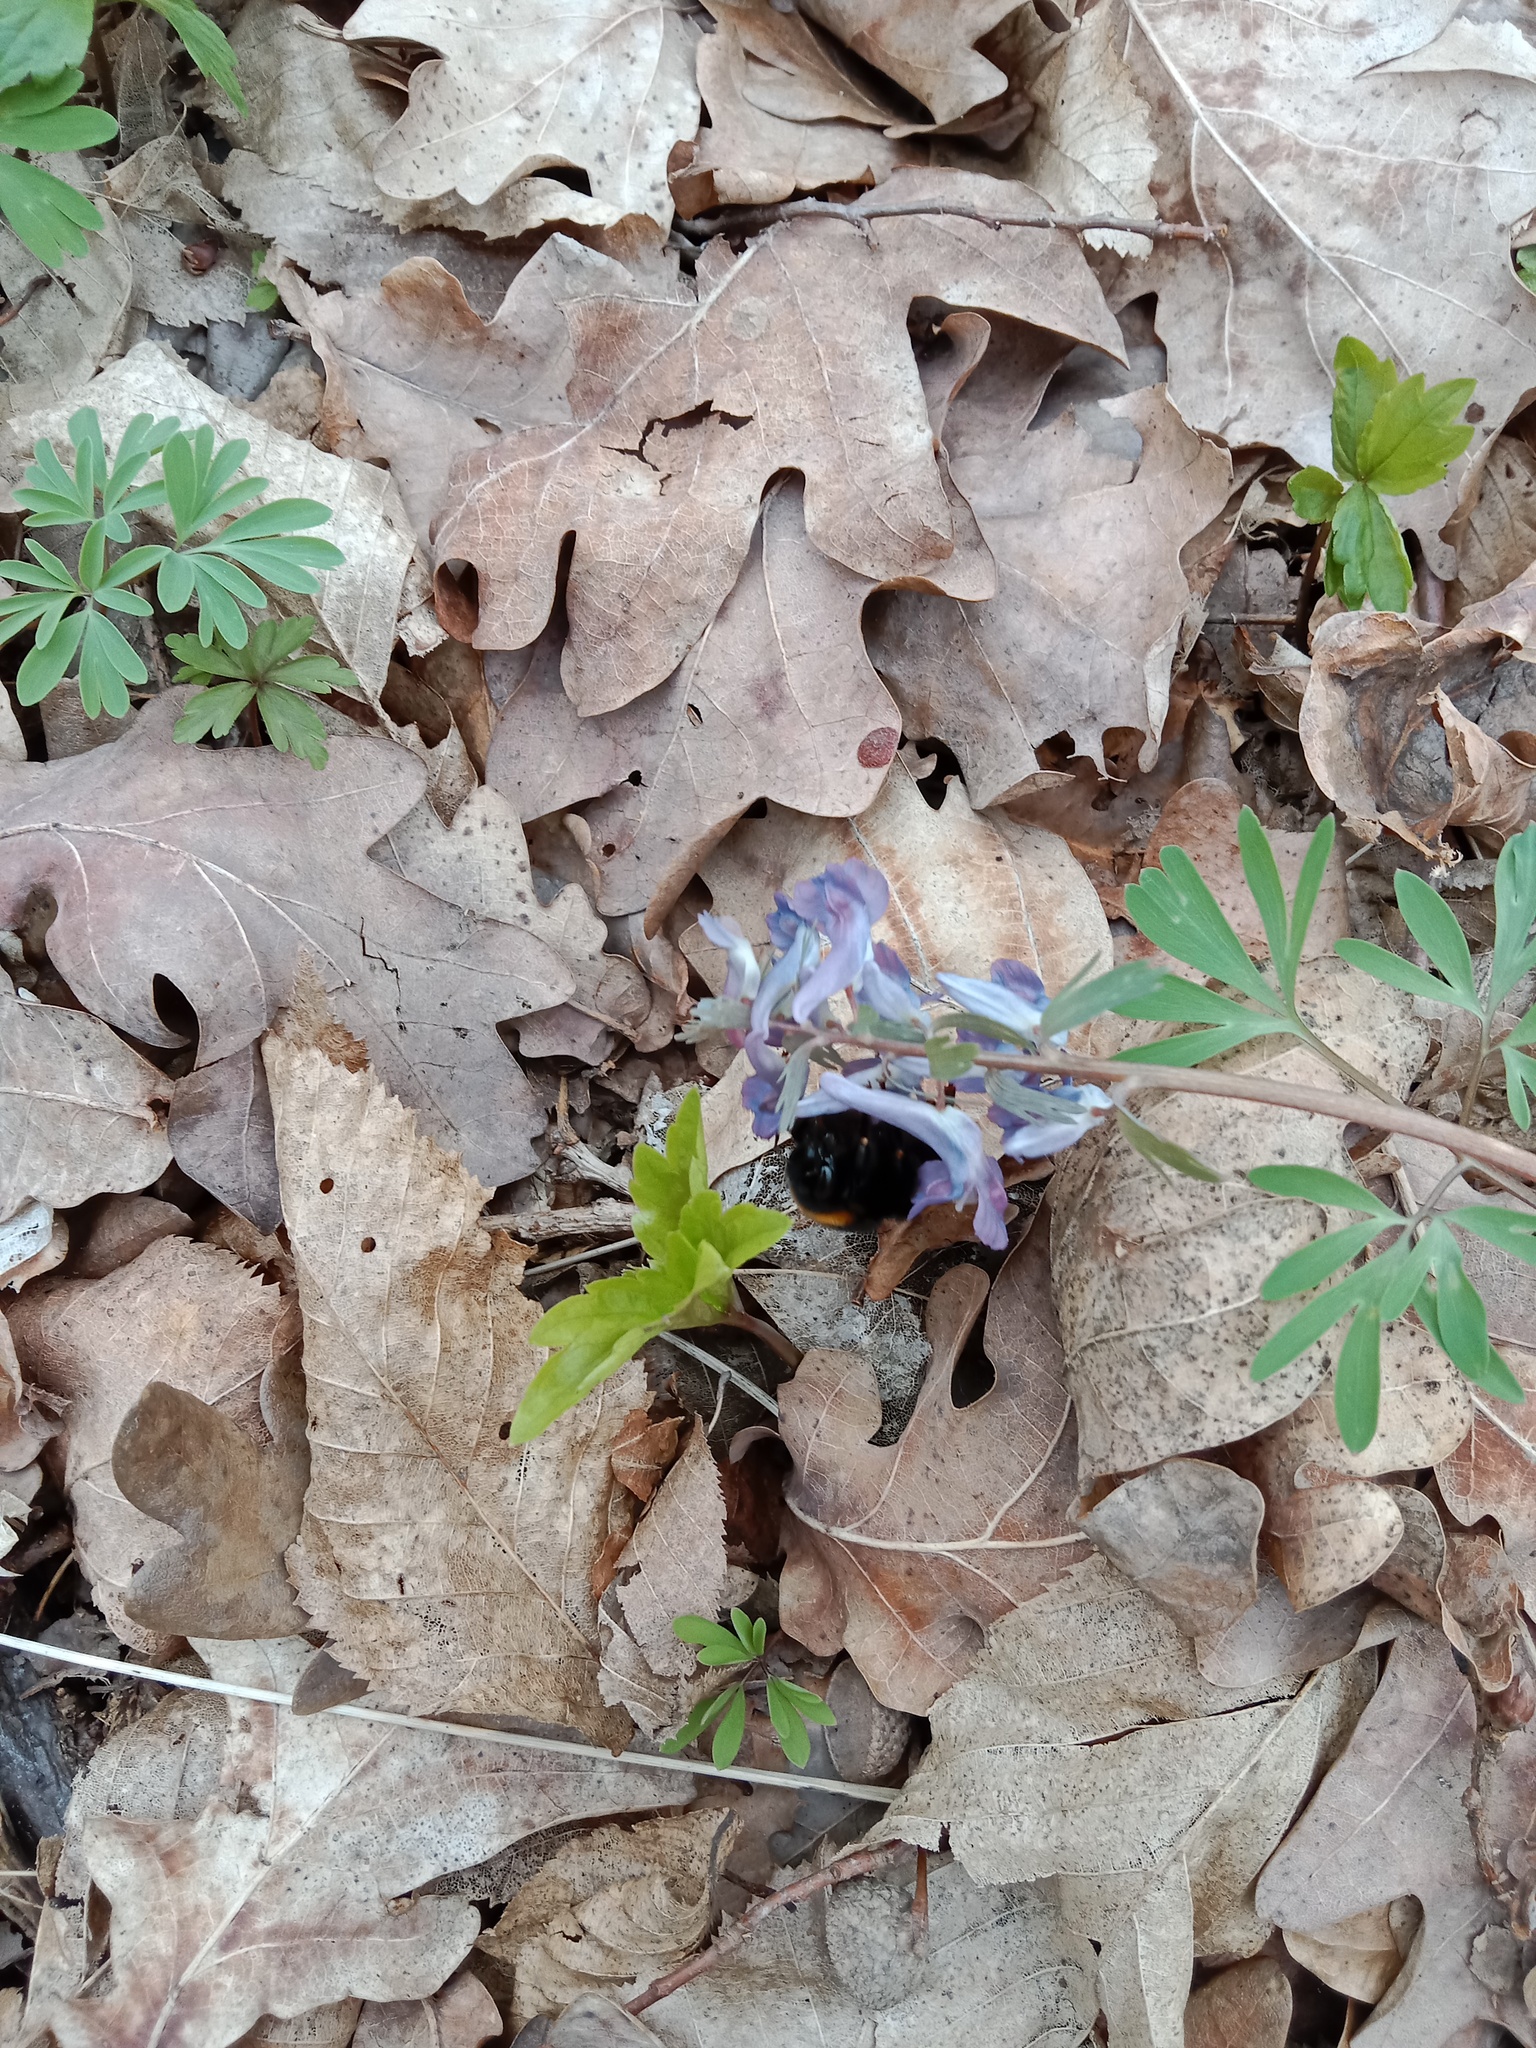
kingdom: Plantae
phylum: Tracheophyta
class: Magnoliopsida
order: Ranunculales
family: Papaveraceae
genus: Corydalis
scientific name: Corydalis solida
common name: Bird-in-a-bush
